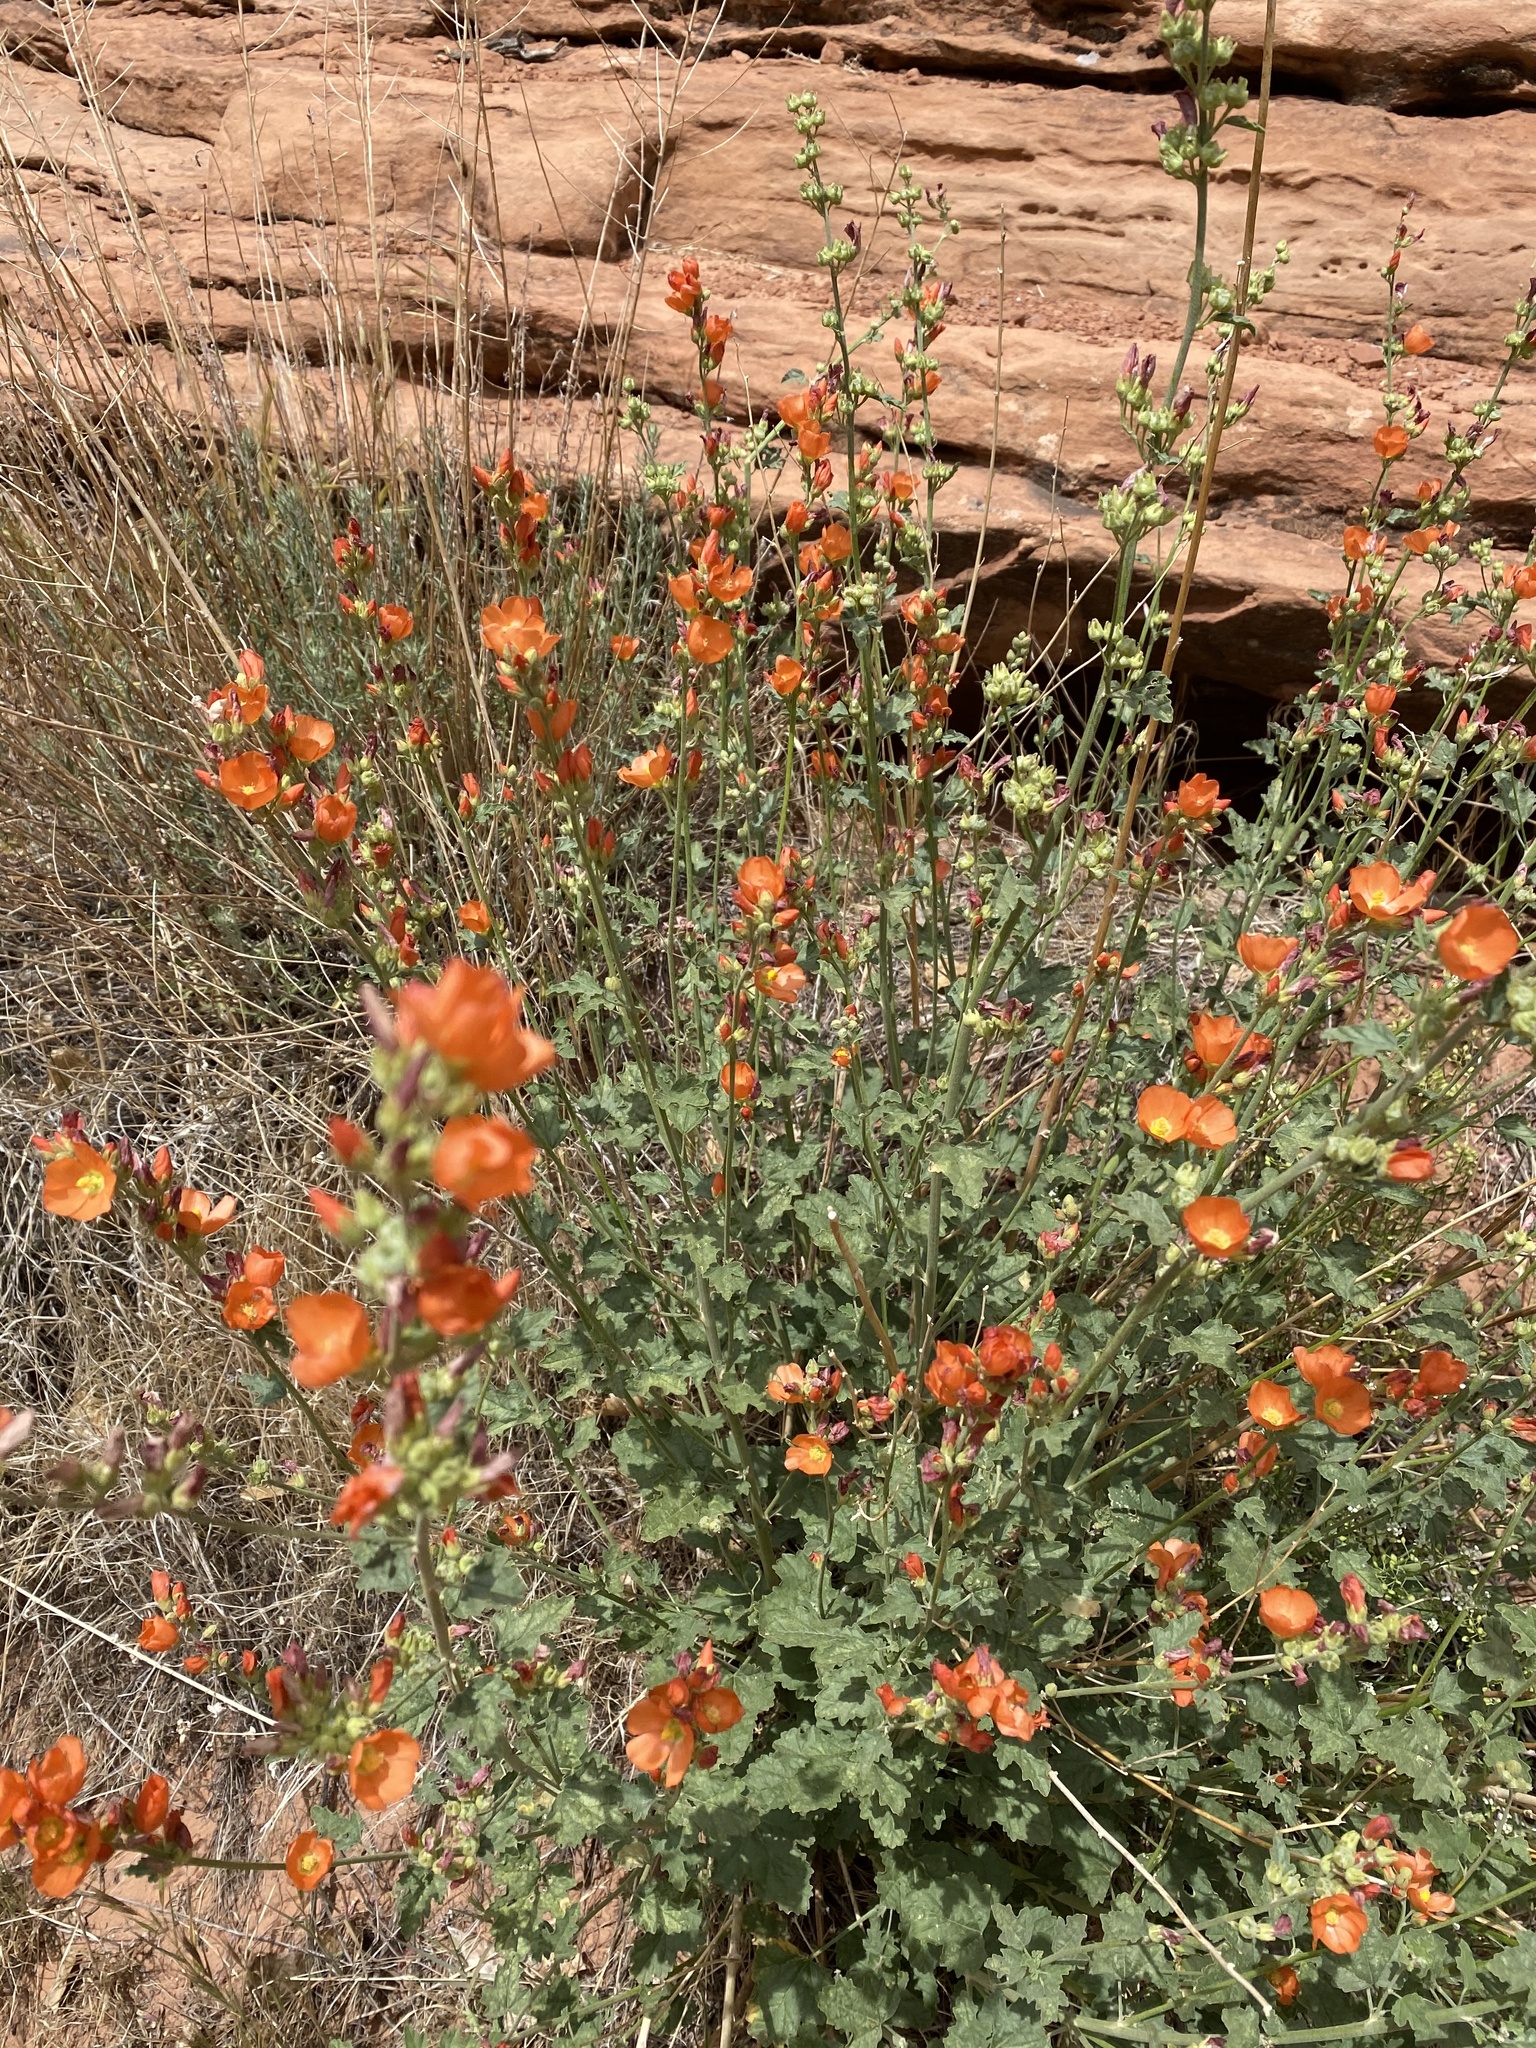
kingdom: Plantae
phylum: Tracheophyta
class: Magnoliopsida
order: Malvales
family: Malvaceae
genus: Sphaeralcea
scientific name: Sphaeralcea parvifolia
